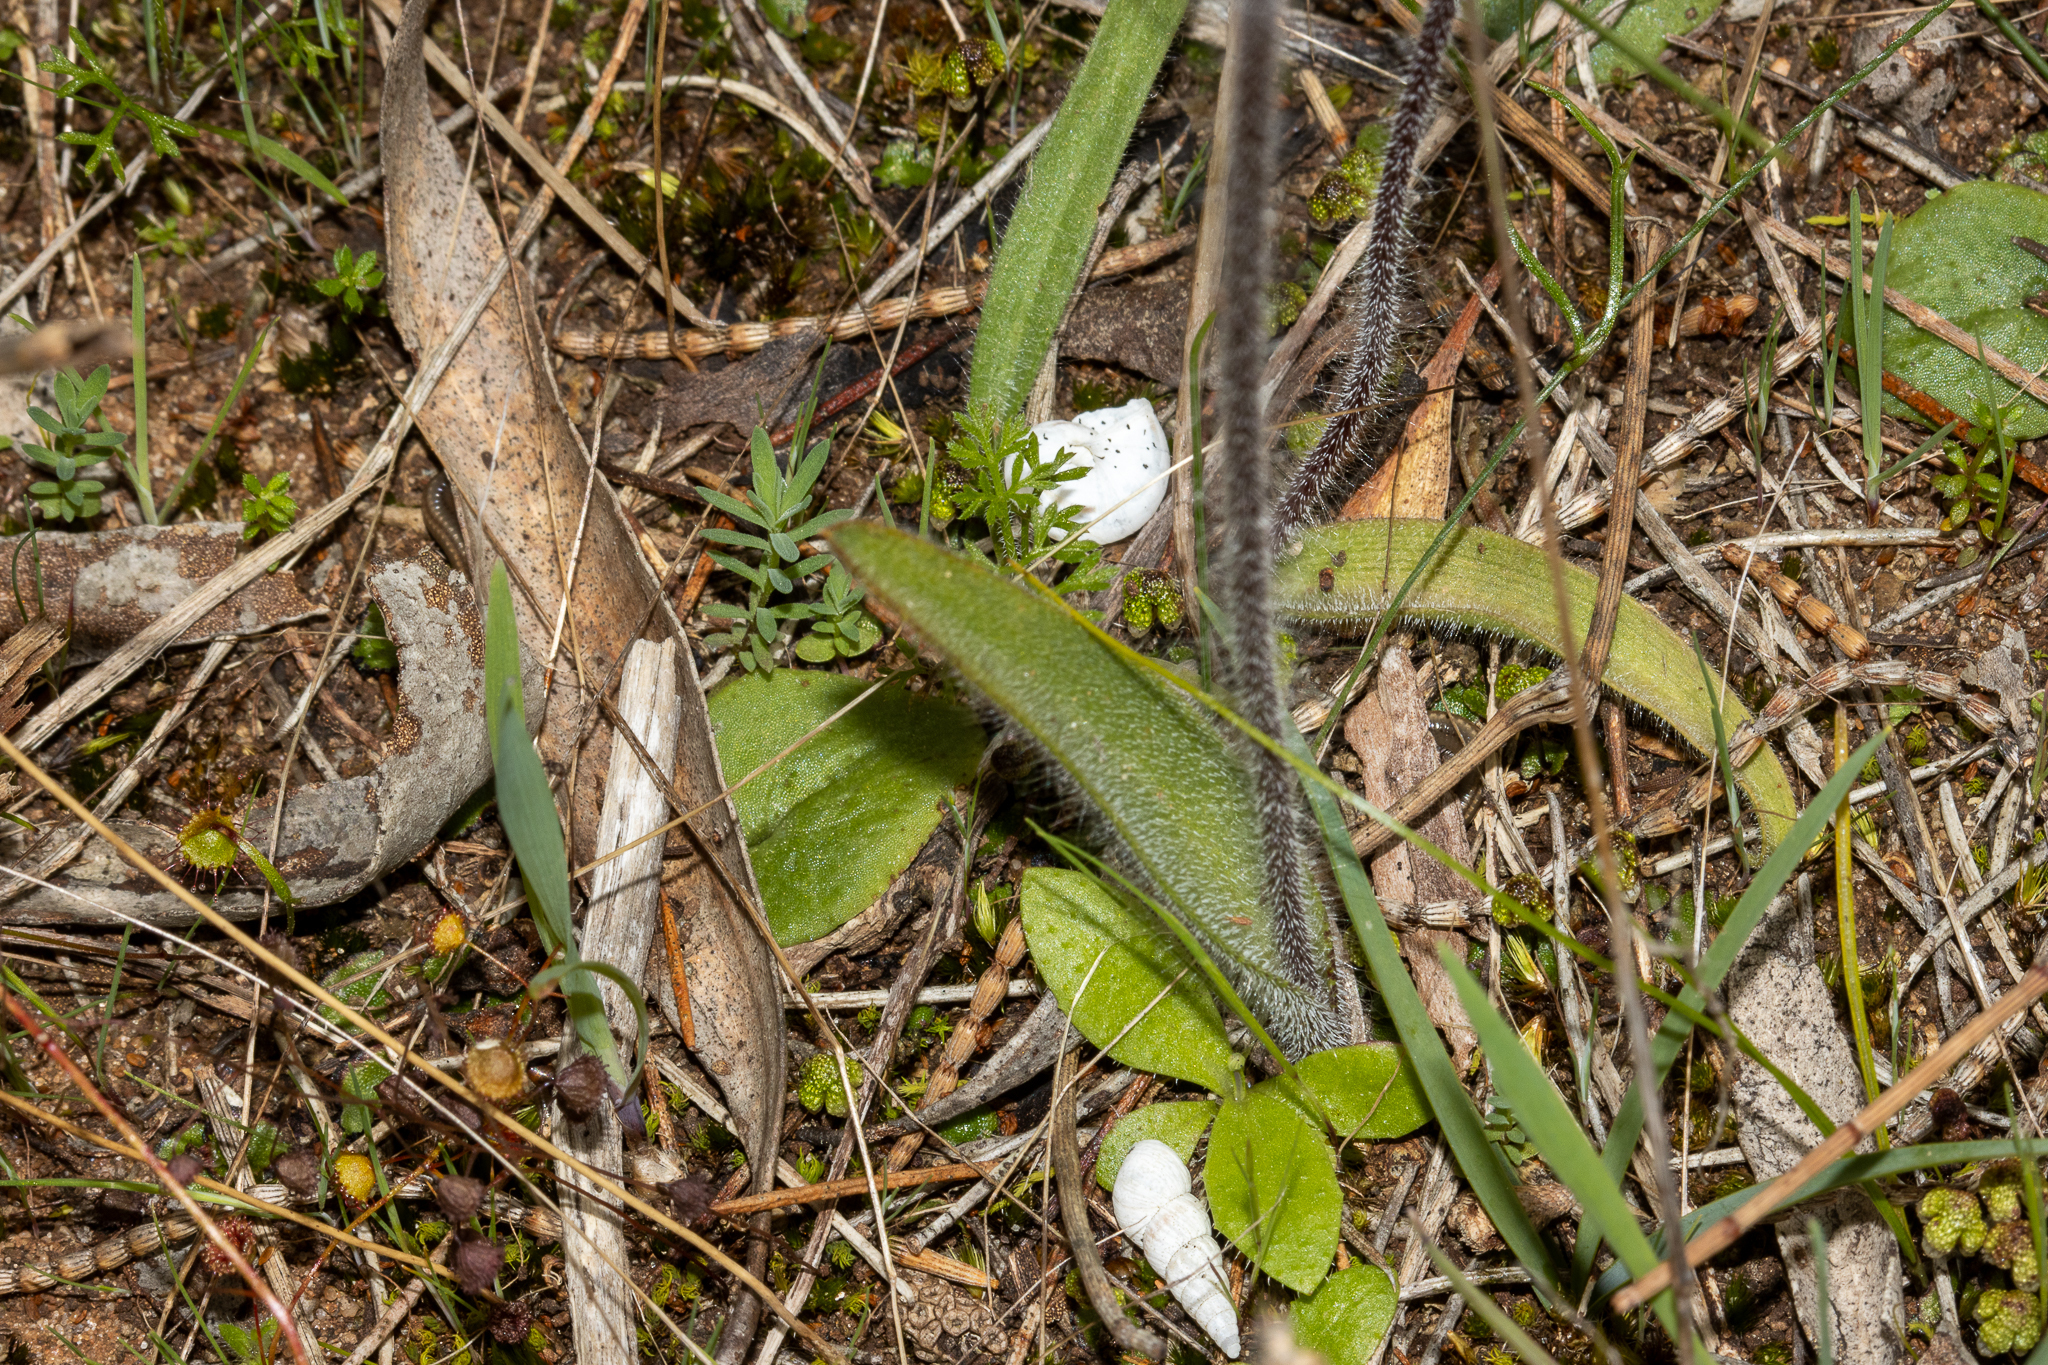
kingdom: Plantae
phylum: Tracheophyta
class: Liliopsida
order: Asparagales
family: Orchidaceae
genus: Caladenia
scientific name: Caladenia brumalis
